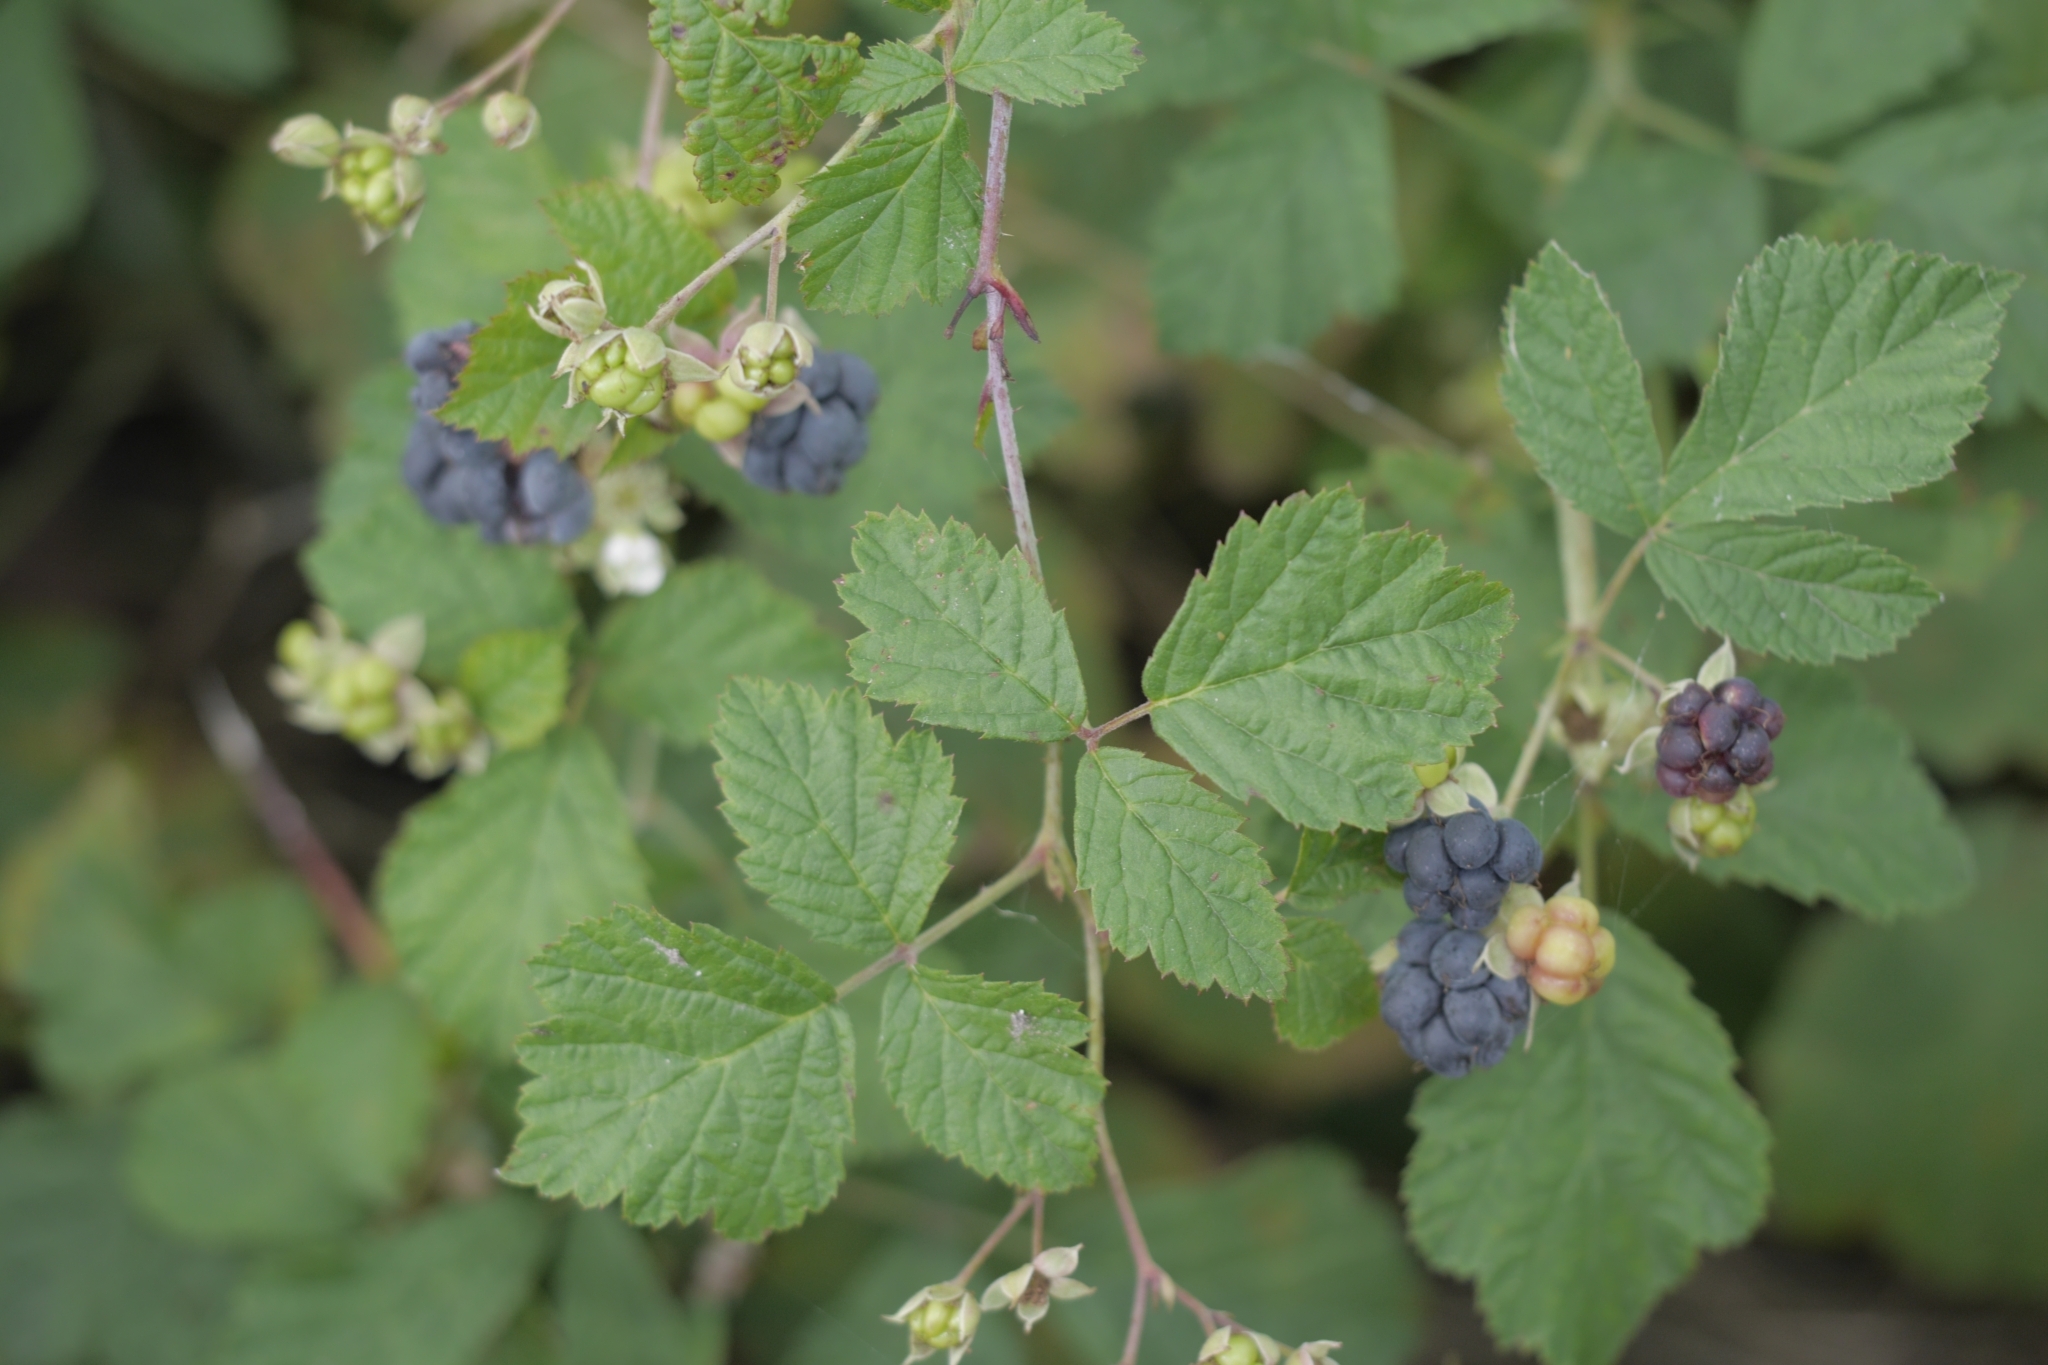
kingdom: Plantae
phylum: Tracheophyta
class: Magnoliopsida
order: Rosales
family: Rosaceae
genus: Rubus
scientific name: Rubus caesius
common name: Dewberry
